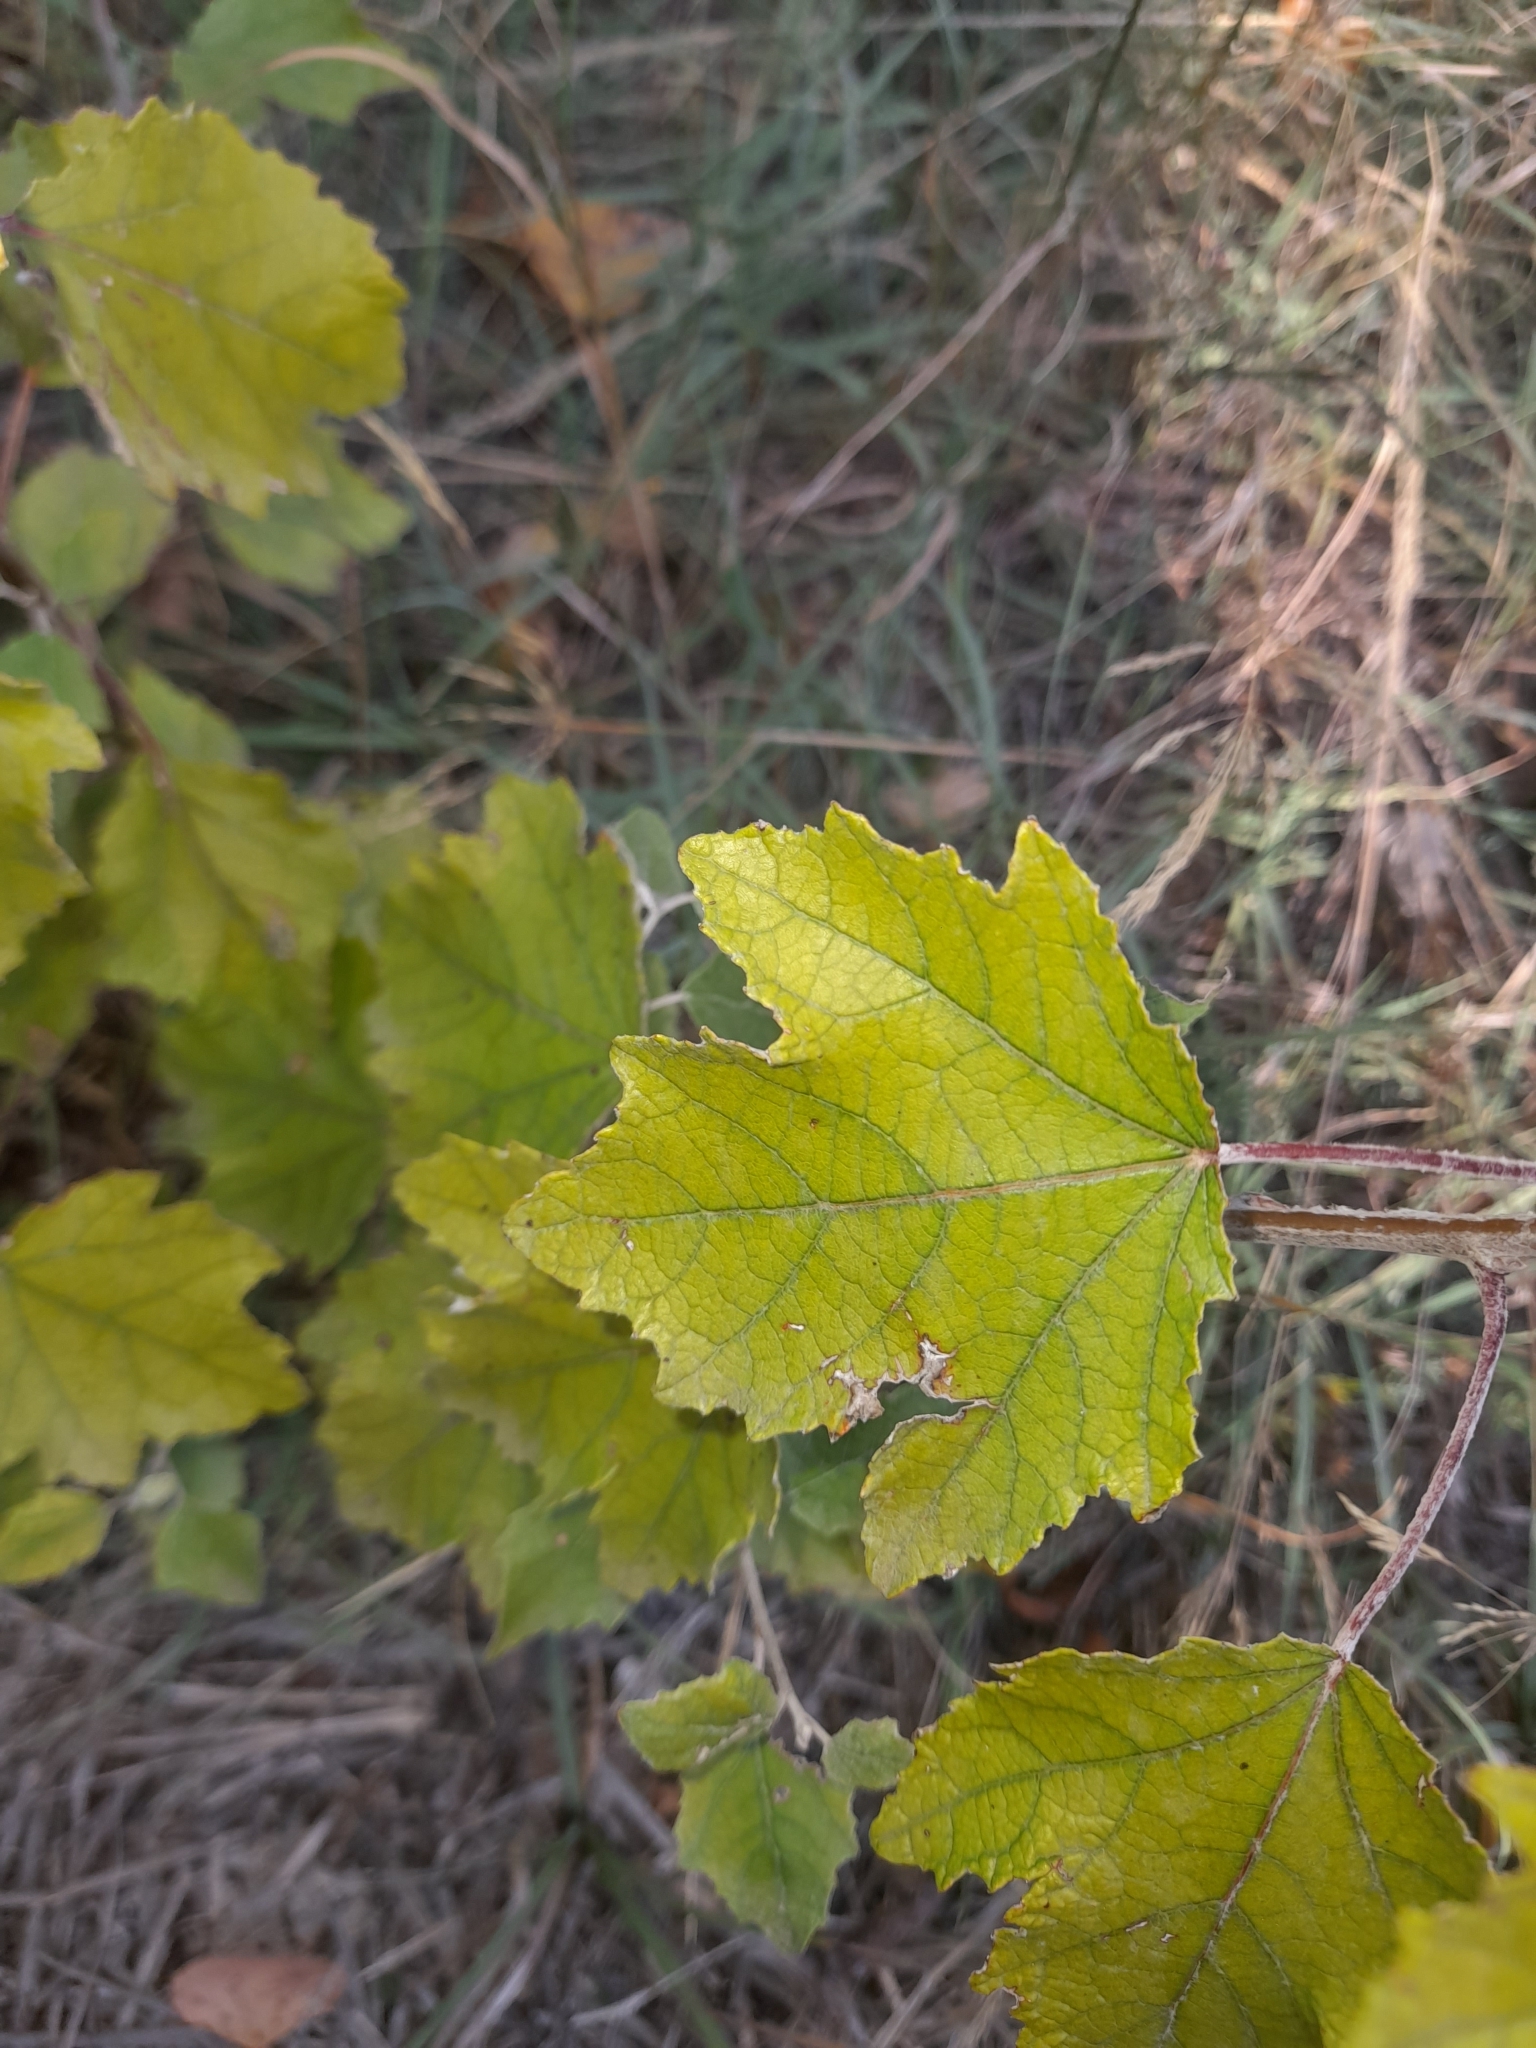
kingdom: Plantae
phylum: Tracheophyta
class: Magnoliopsida
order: Malpighiales
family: Salicaceae
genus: Populus
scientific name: Populus alba
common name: White poplar
